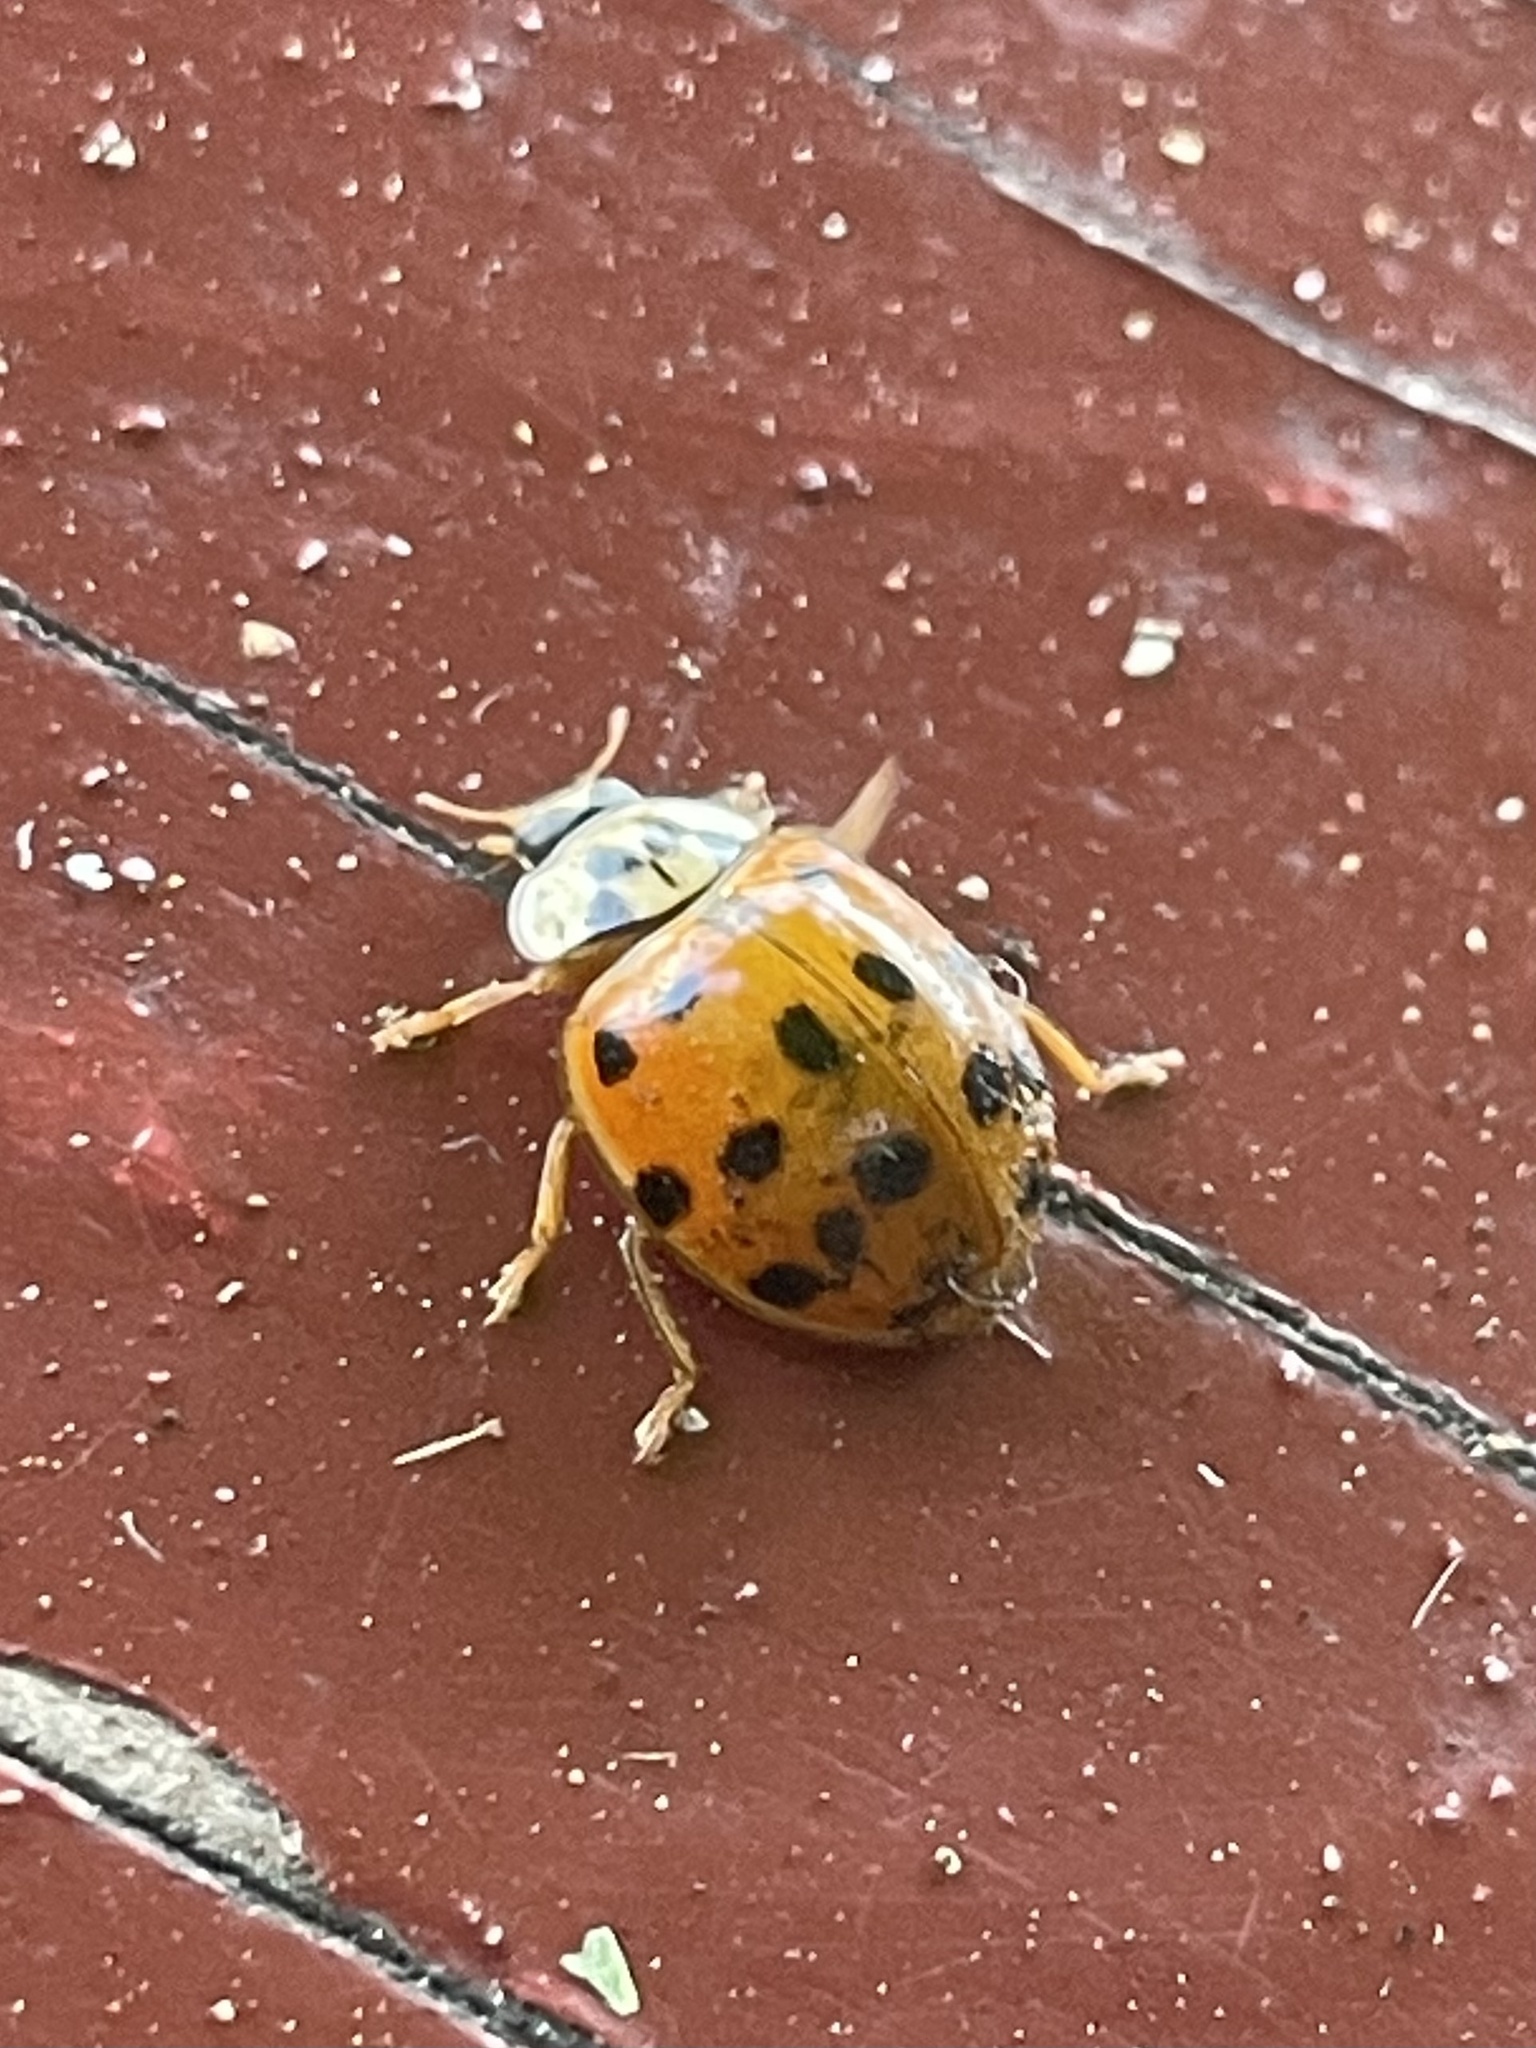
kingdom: Animalia
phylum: Arthropoda
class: Insecta
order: Coleoptera
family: Coccinellidae
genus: Harmonia
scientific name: Harmonia axyridis
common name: Harlequin ladybird
